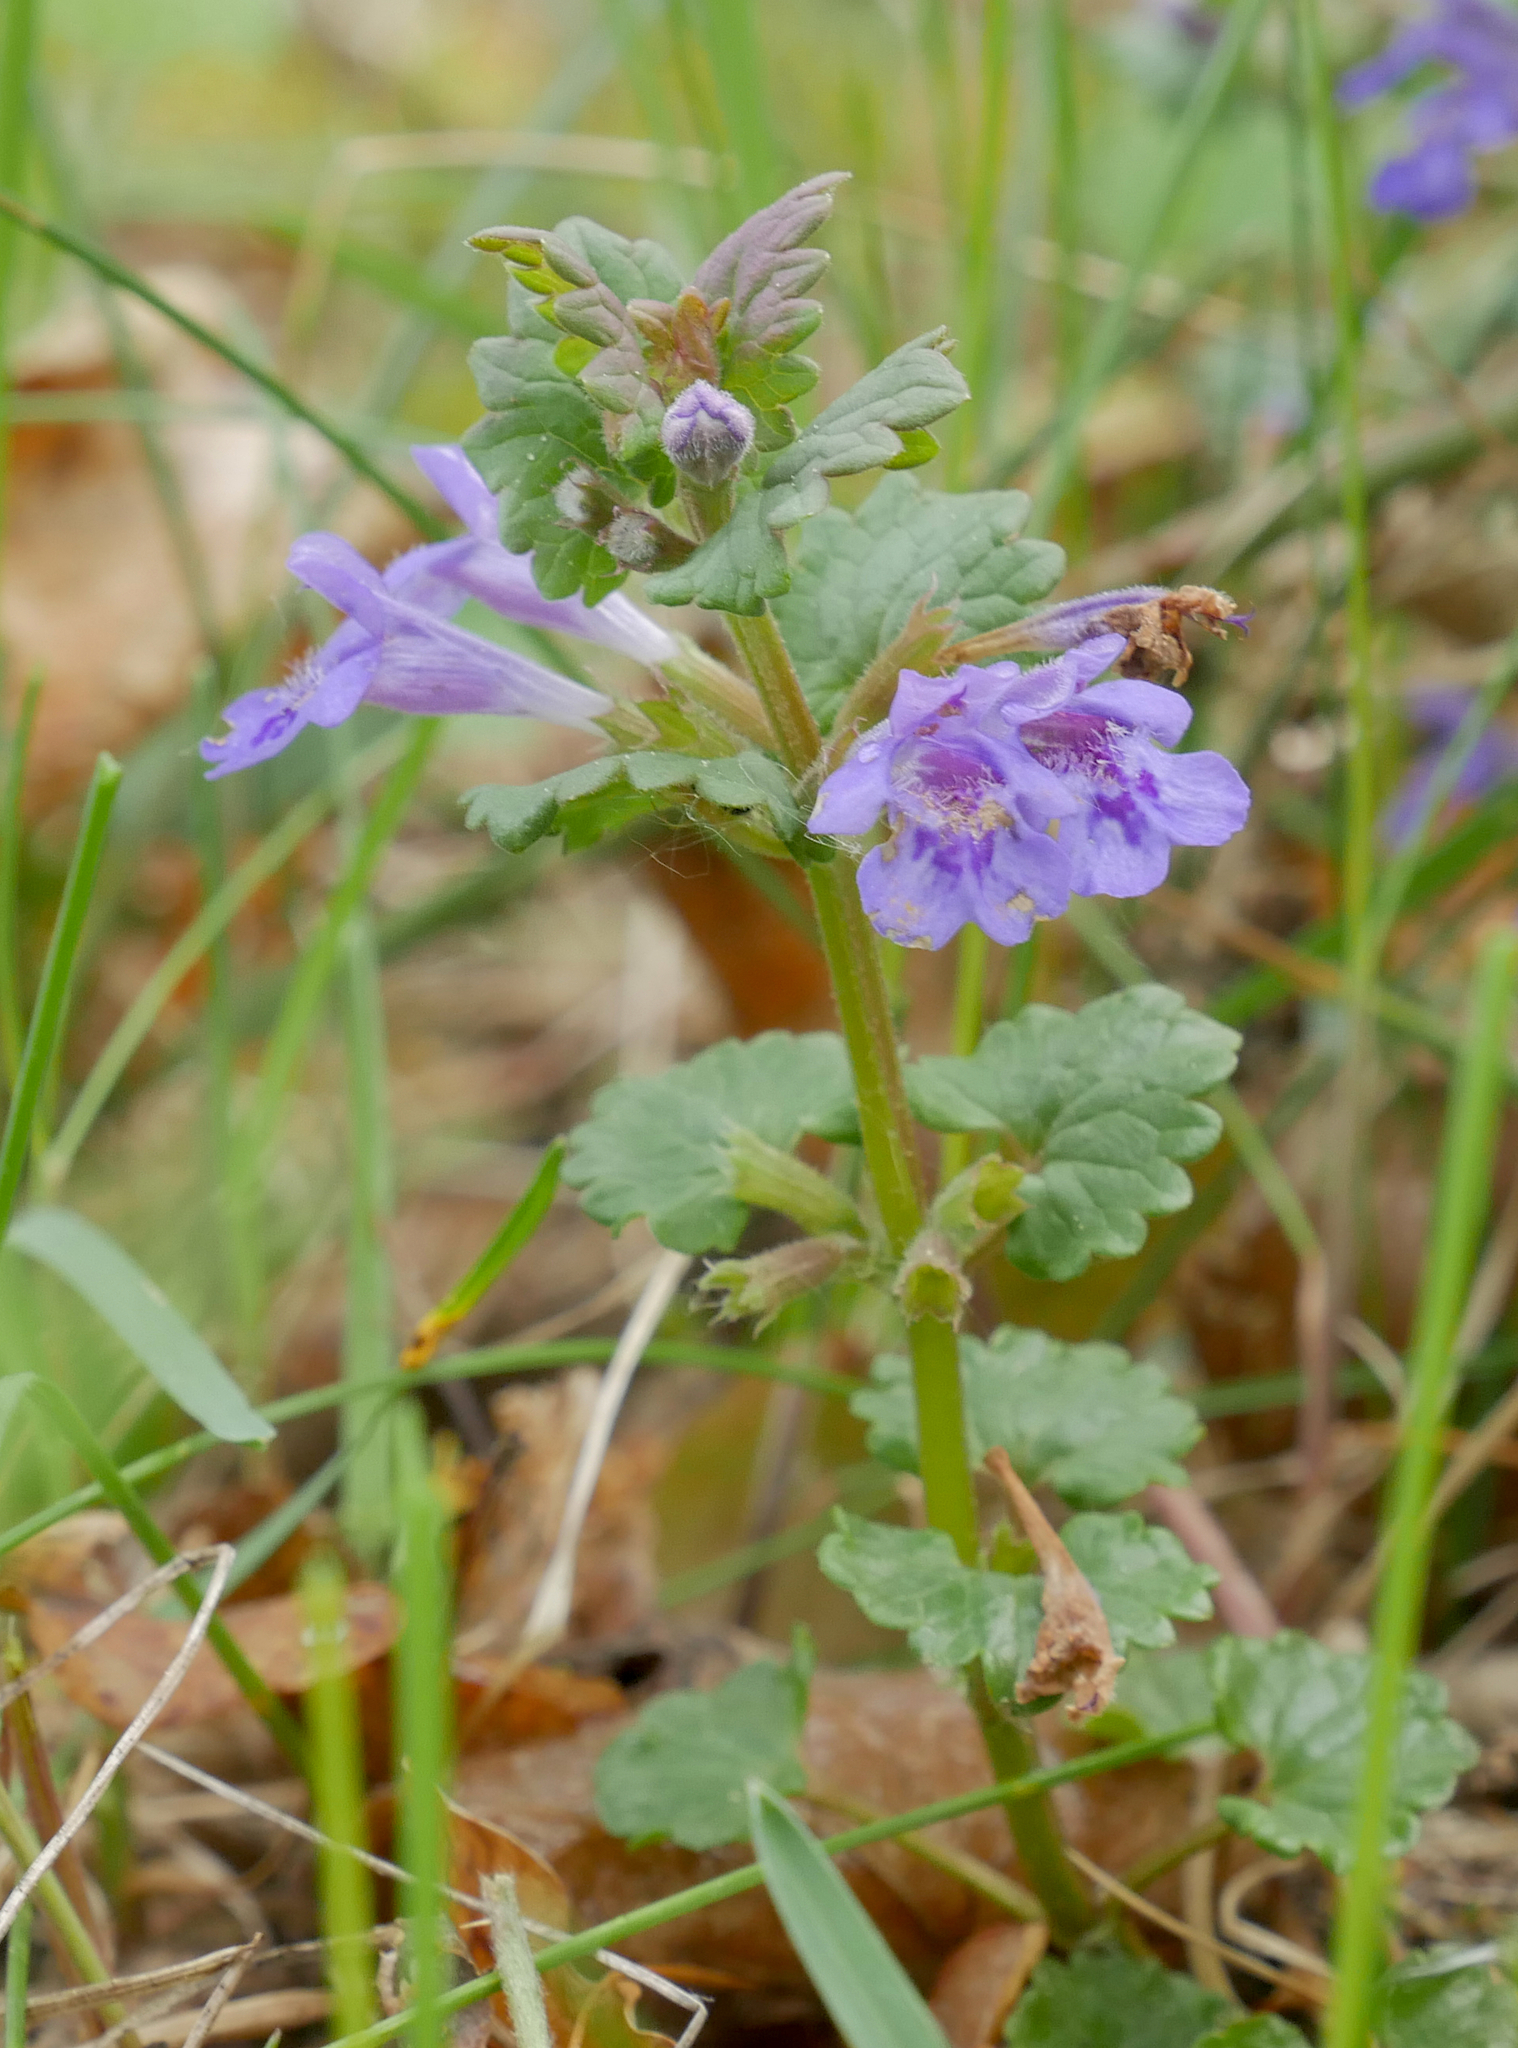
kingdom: Plantae
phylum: Tracheophyta
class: Magnoliopsida
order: Lamiales
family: Lamiaceae
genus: Glechoma
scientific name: Glechoma hederacea
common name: Ground ivy
